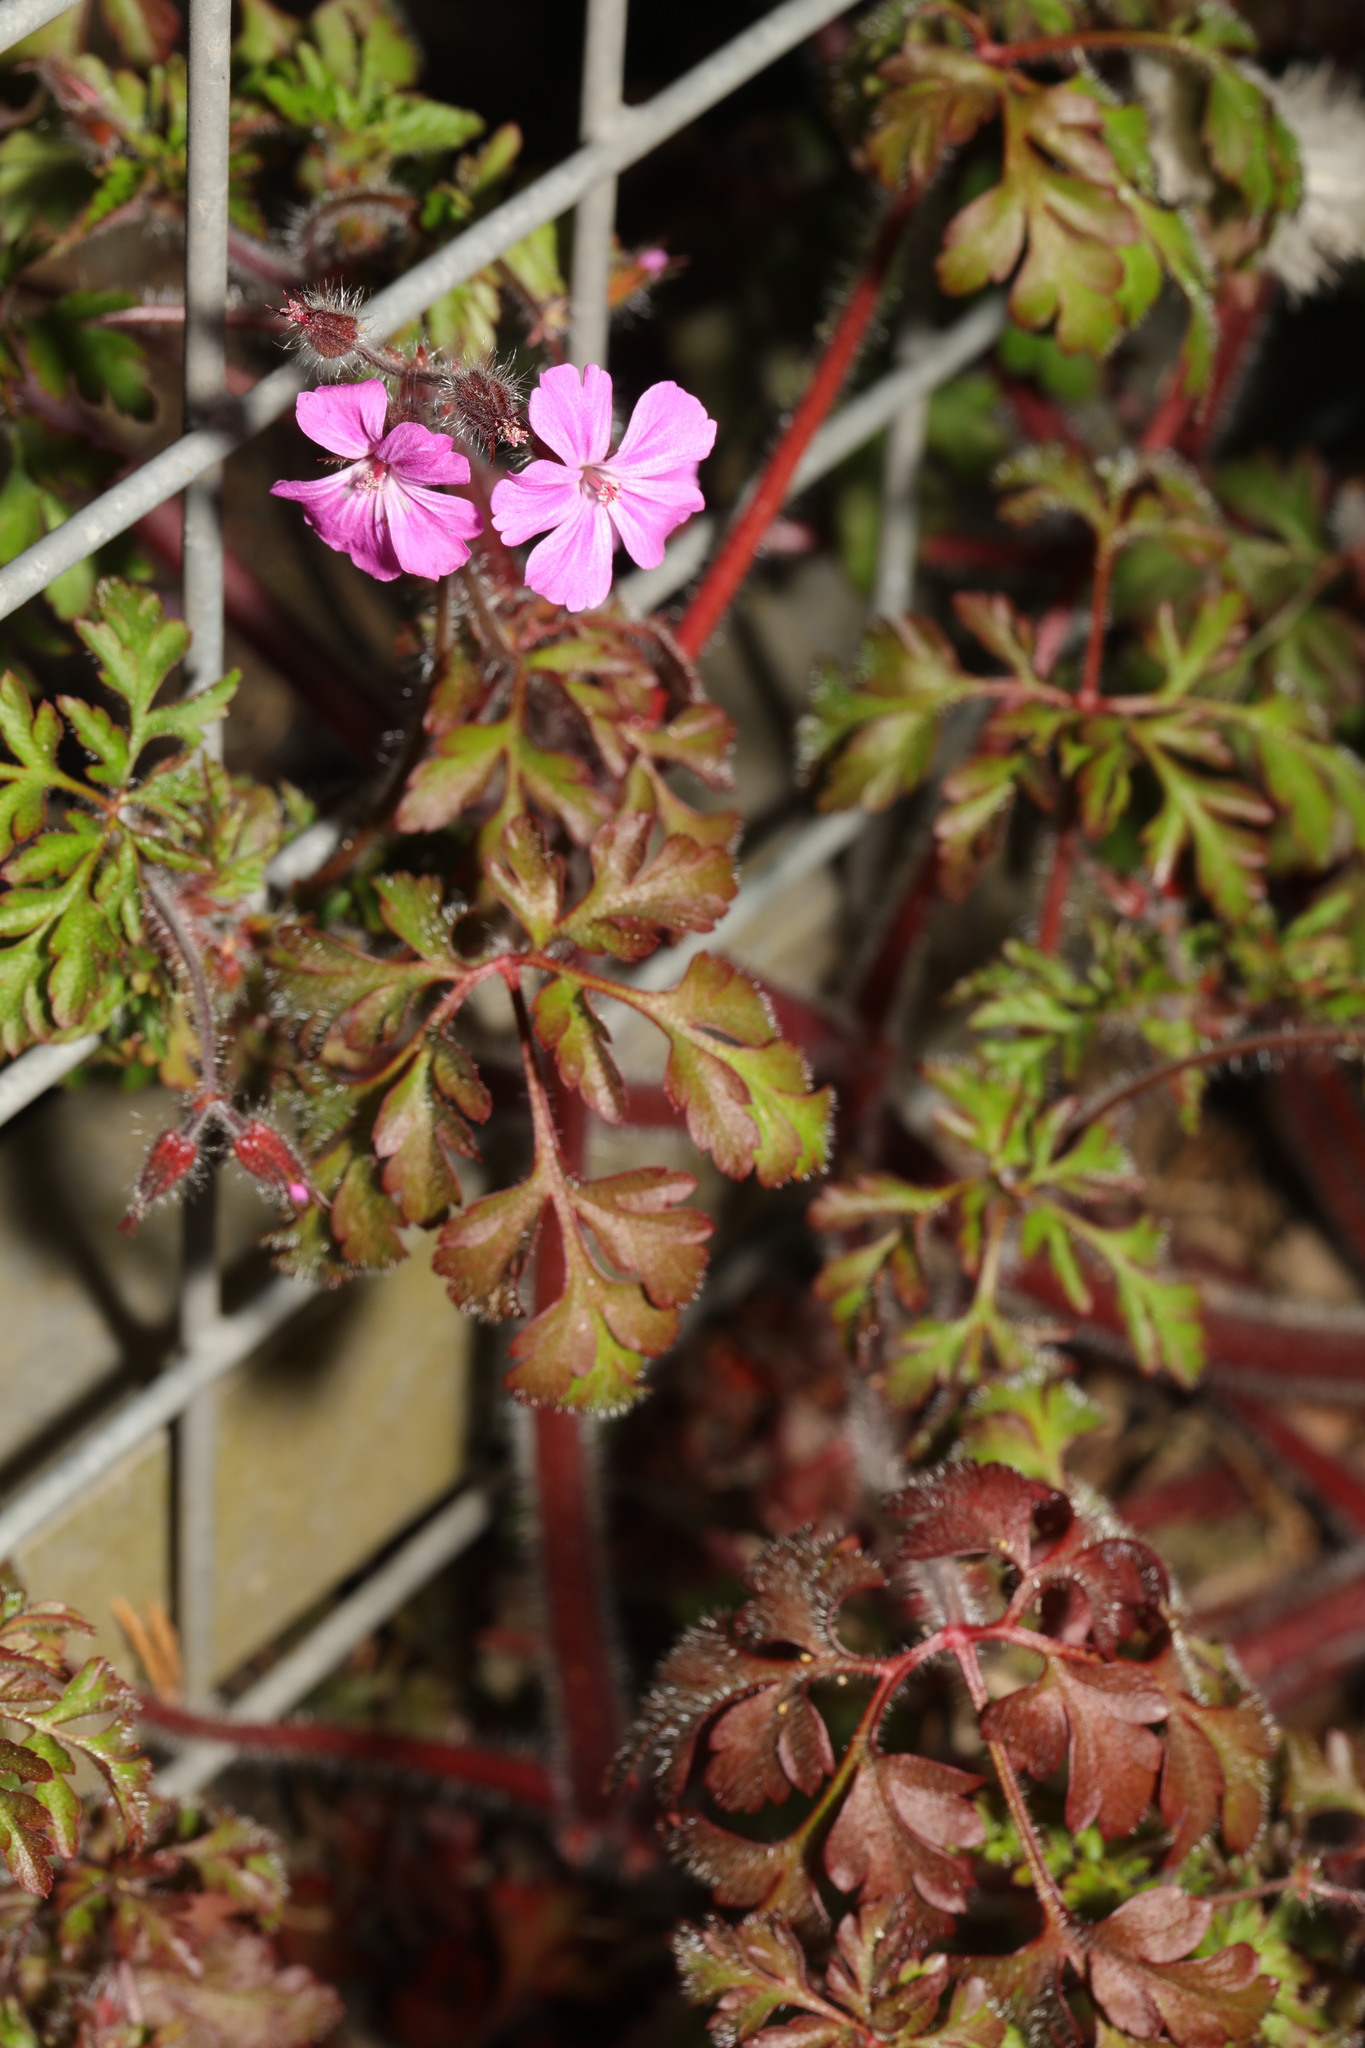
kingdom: Plantae
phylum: Tracheophyta
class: Magnoliopsida
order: Geraniales
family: Geraniaceae
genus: Geranium
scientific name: Geranium robertianum
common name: Herb-robert
